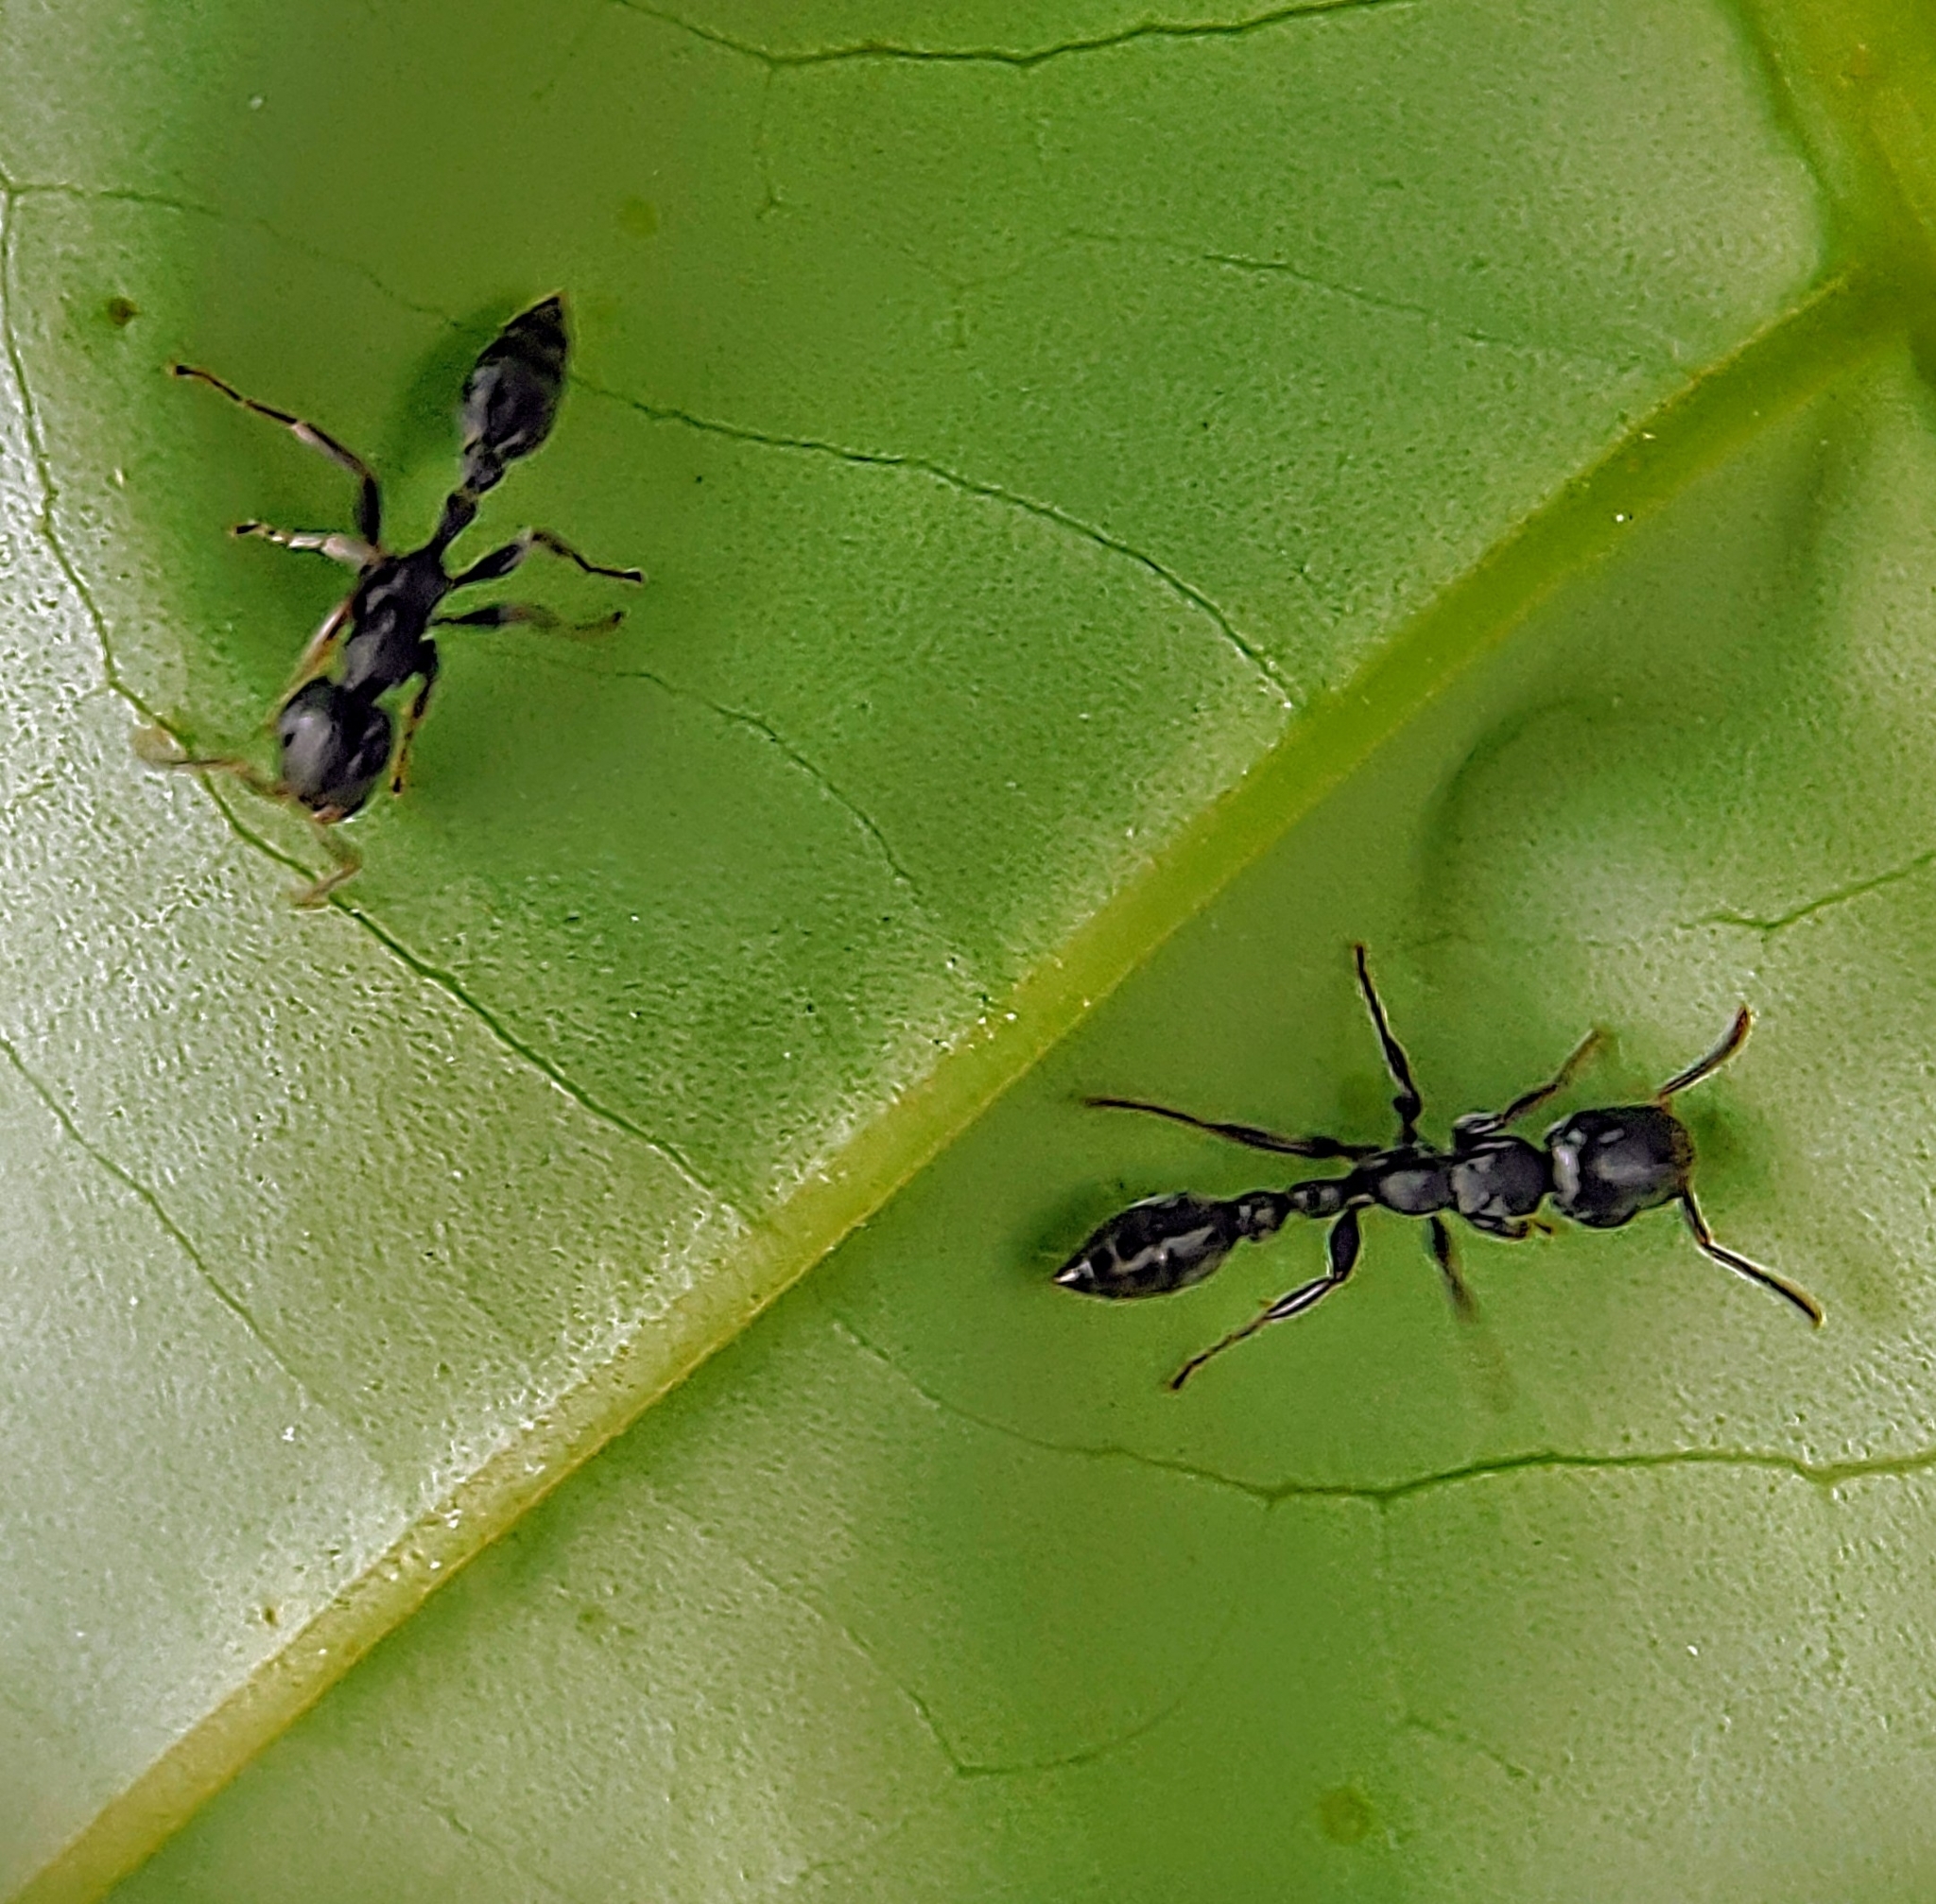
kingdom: Animalia
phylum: Arthropoda
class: Insecta
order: Hymenoptera
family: Formicidae
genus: Tetraponera
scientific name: Tetraponera pilosa
